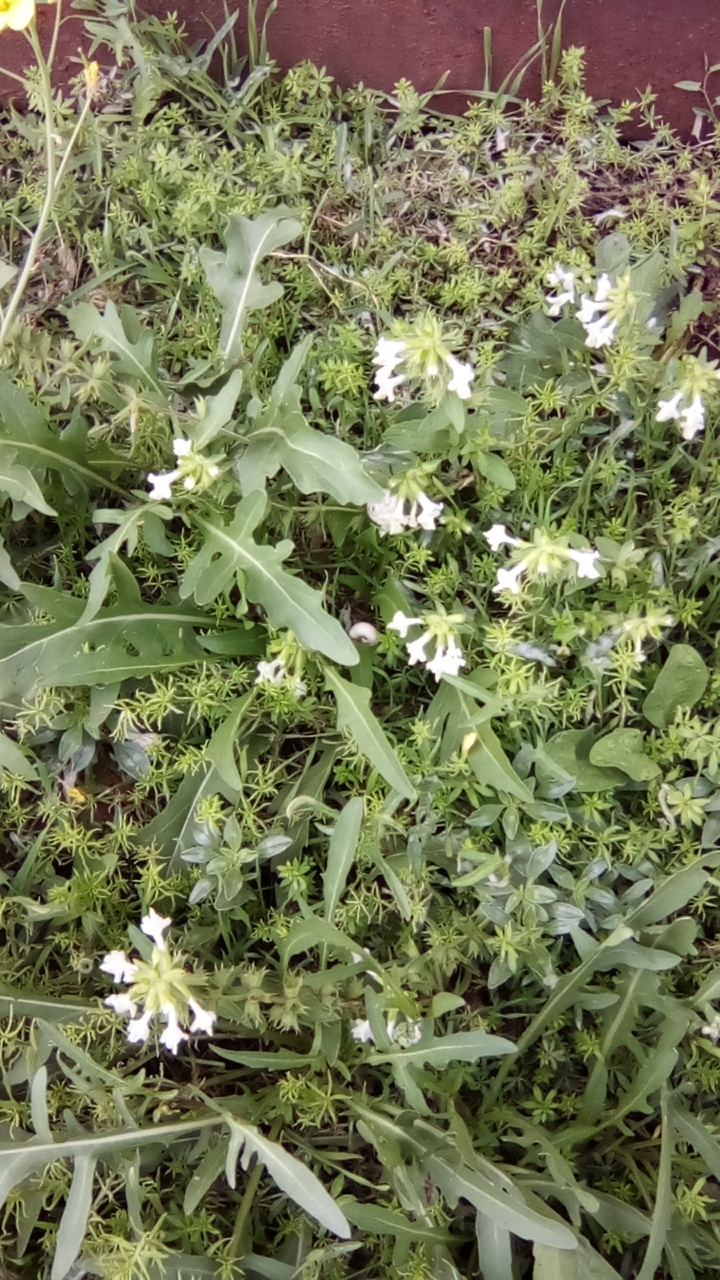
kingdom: Plantae
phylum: Tracheophyta
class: Magnoliopsida
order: Lamiales
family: Lamiaceae
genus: Stachys
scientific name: Stachys annua
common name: Annual yellow-woundwort
